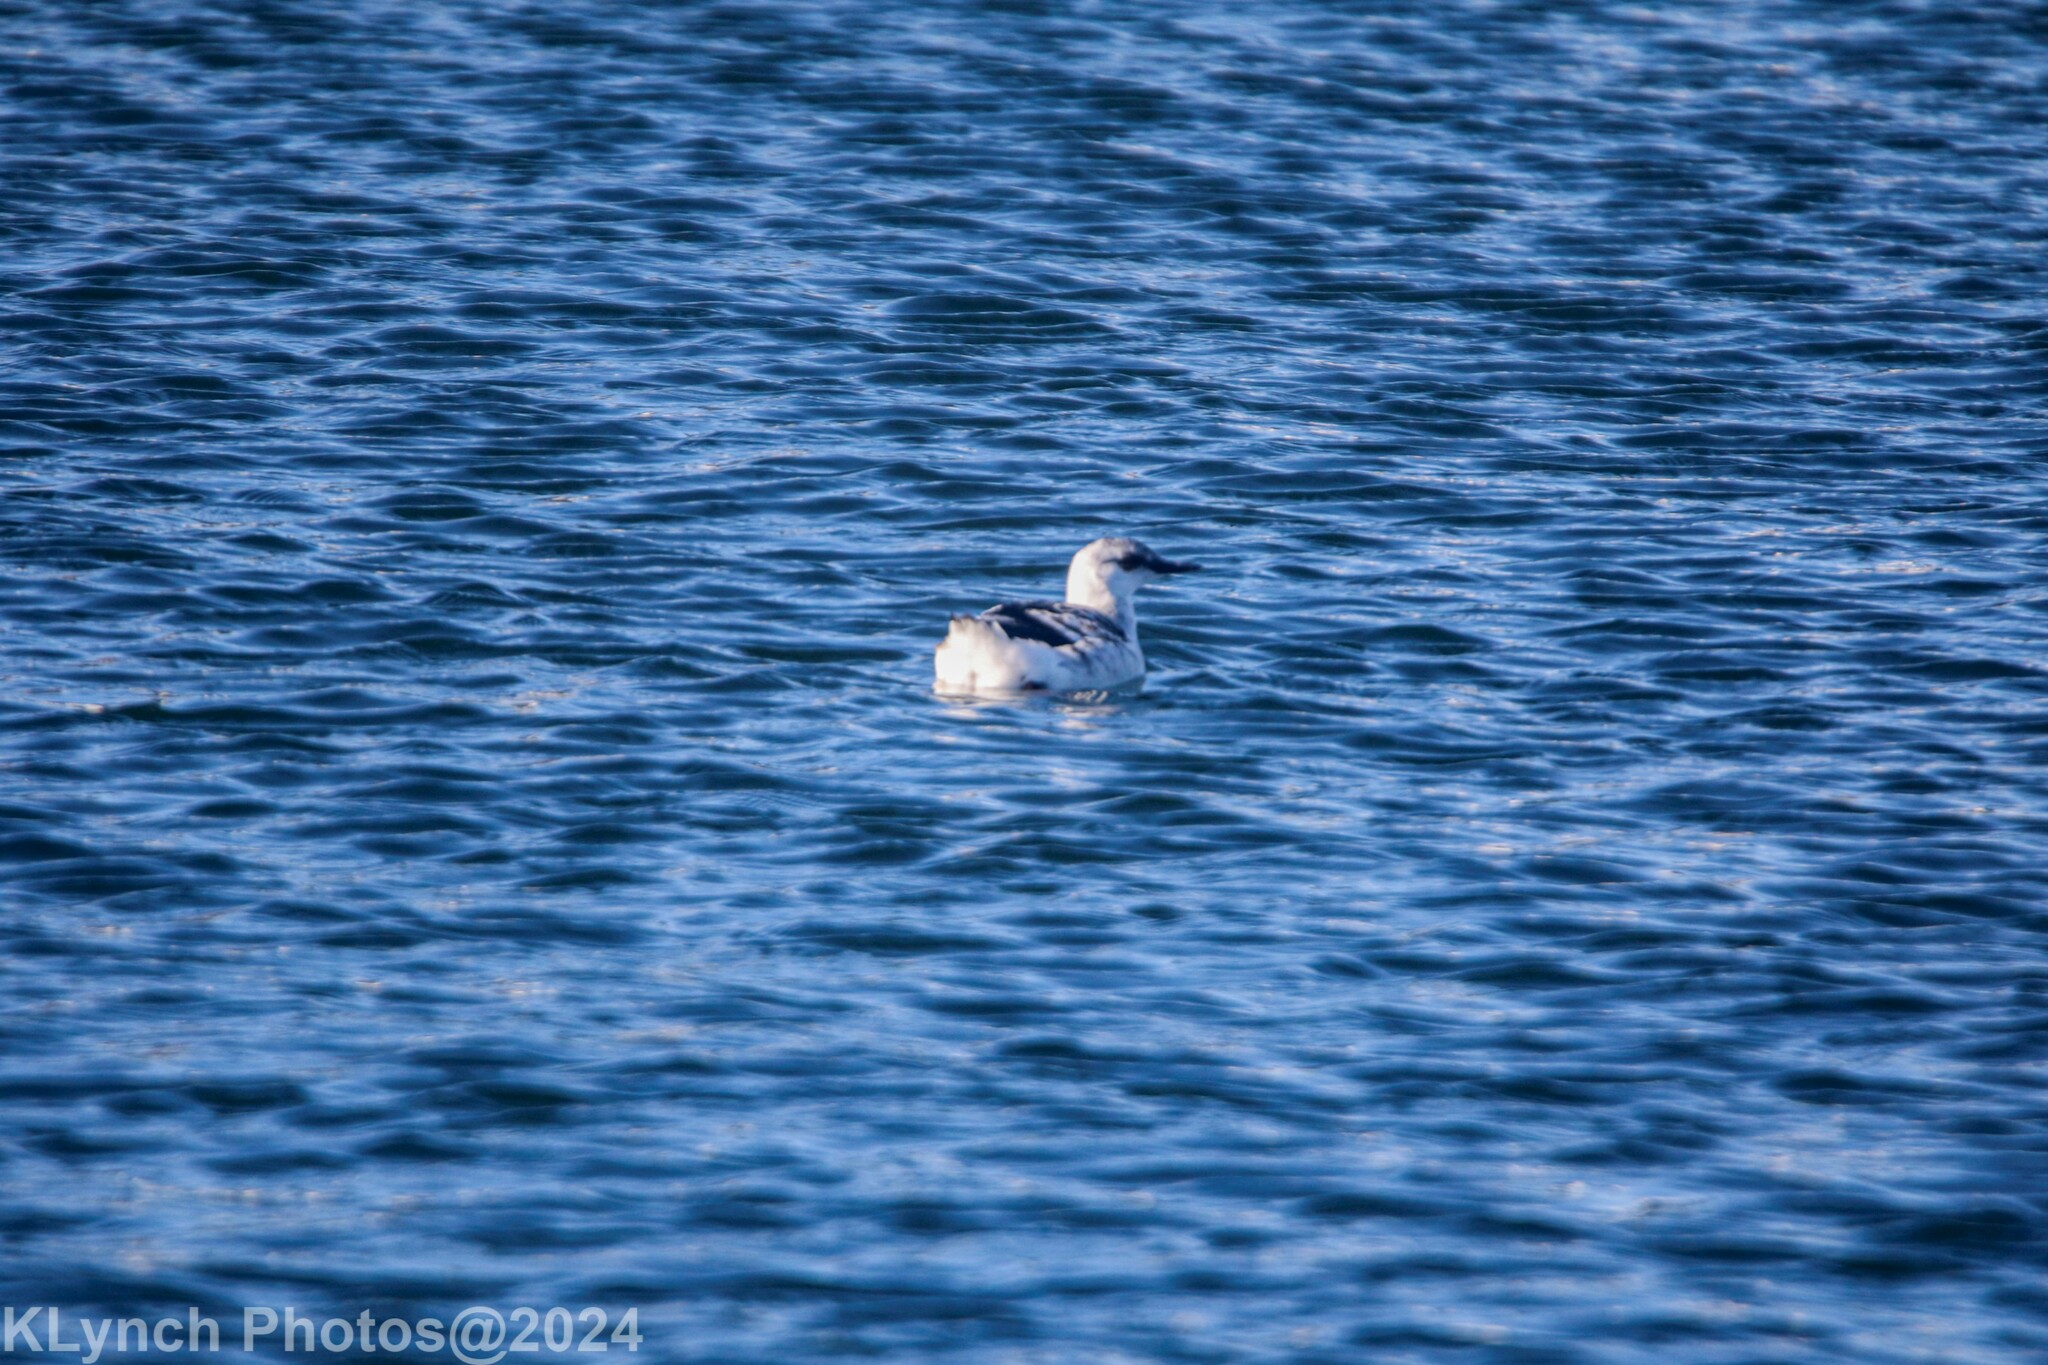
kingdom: Animalia
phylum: Chordata
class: Aves
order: Charadriiformes
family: Alcidae
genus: Cepphus
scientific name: Cepphus grylle
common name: Black guillemot
